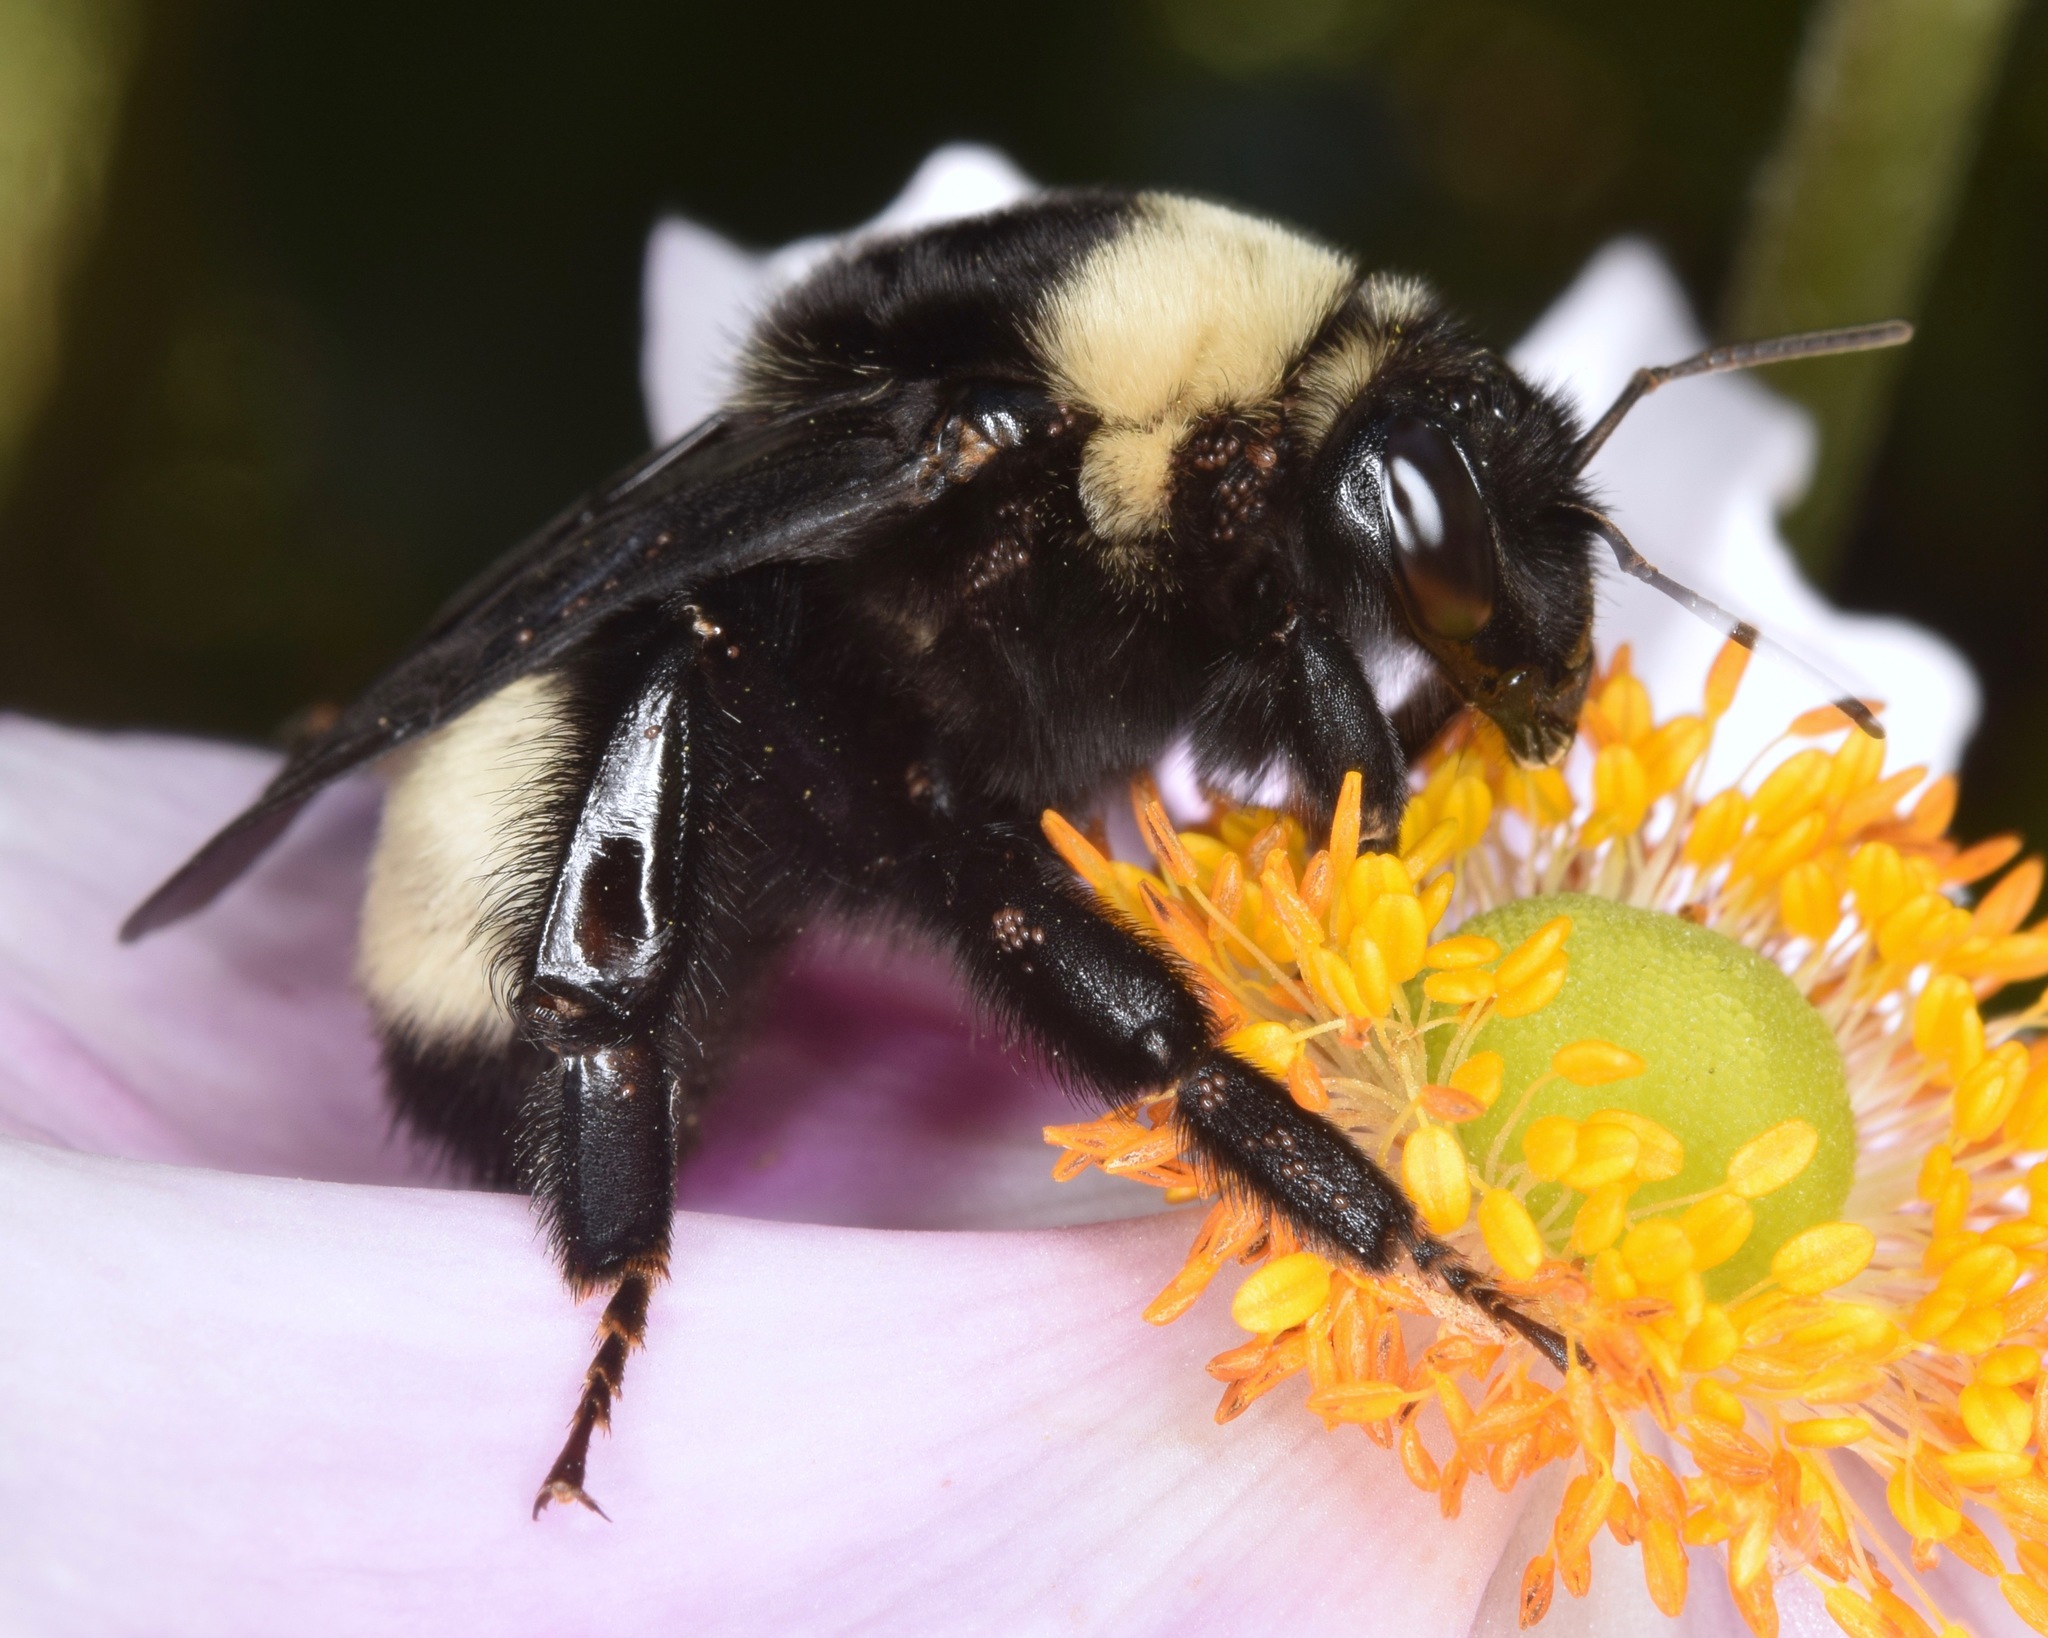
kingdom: Animalia
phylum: Arthropoda
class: Insecta
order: Hymenoptera
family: Apidae
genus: Bombus
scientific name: Bombus auricomus
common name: Black and gold bumble bee
